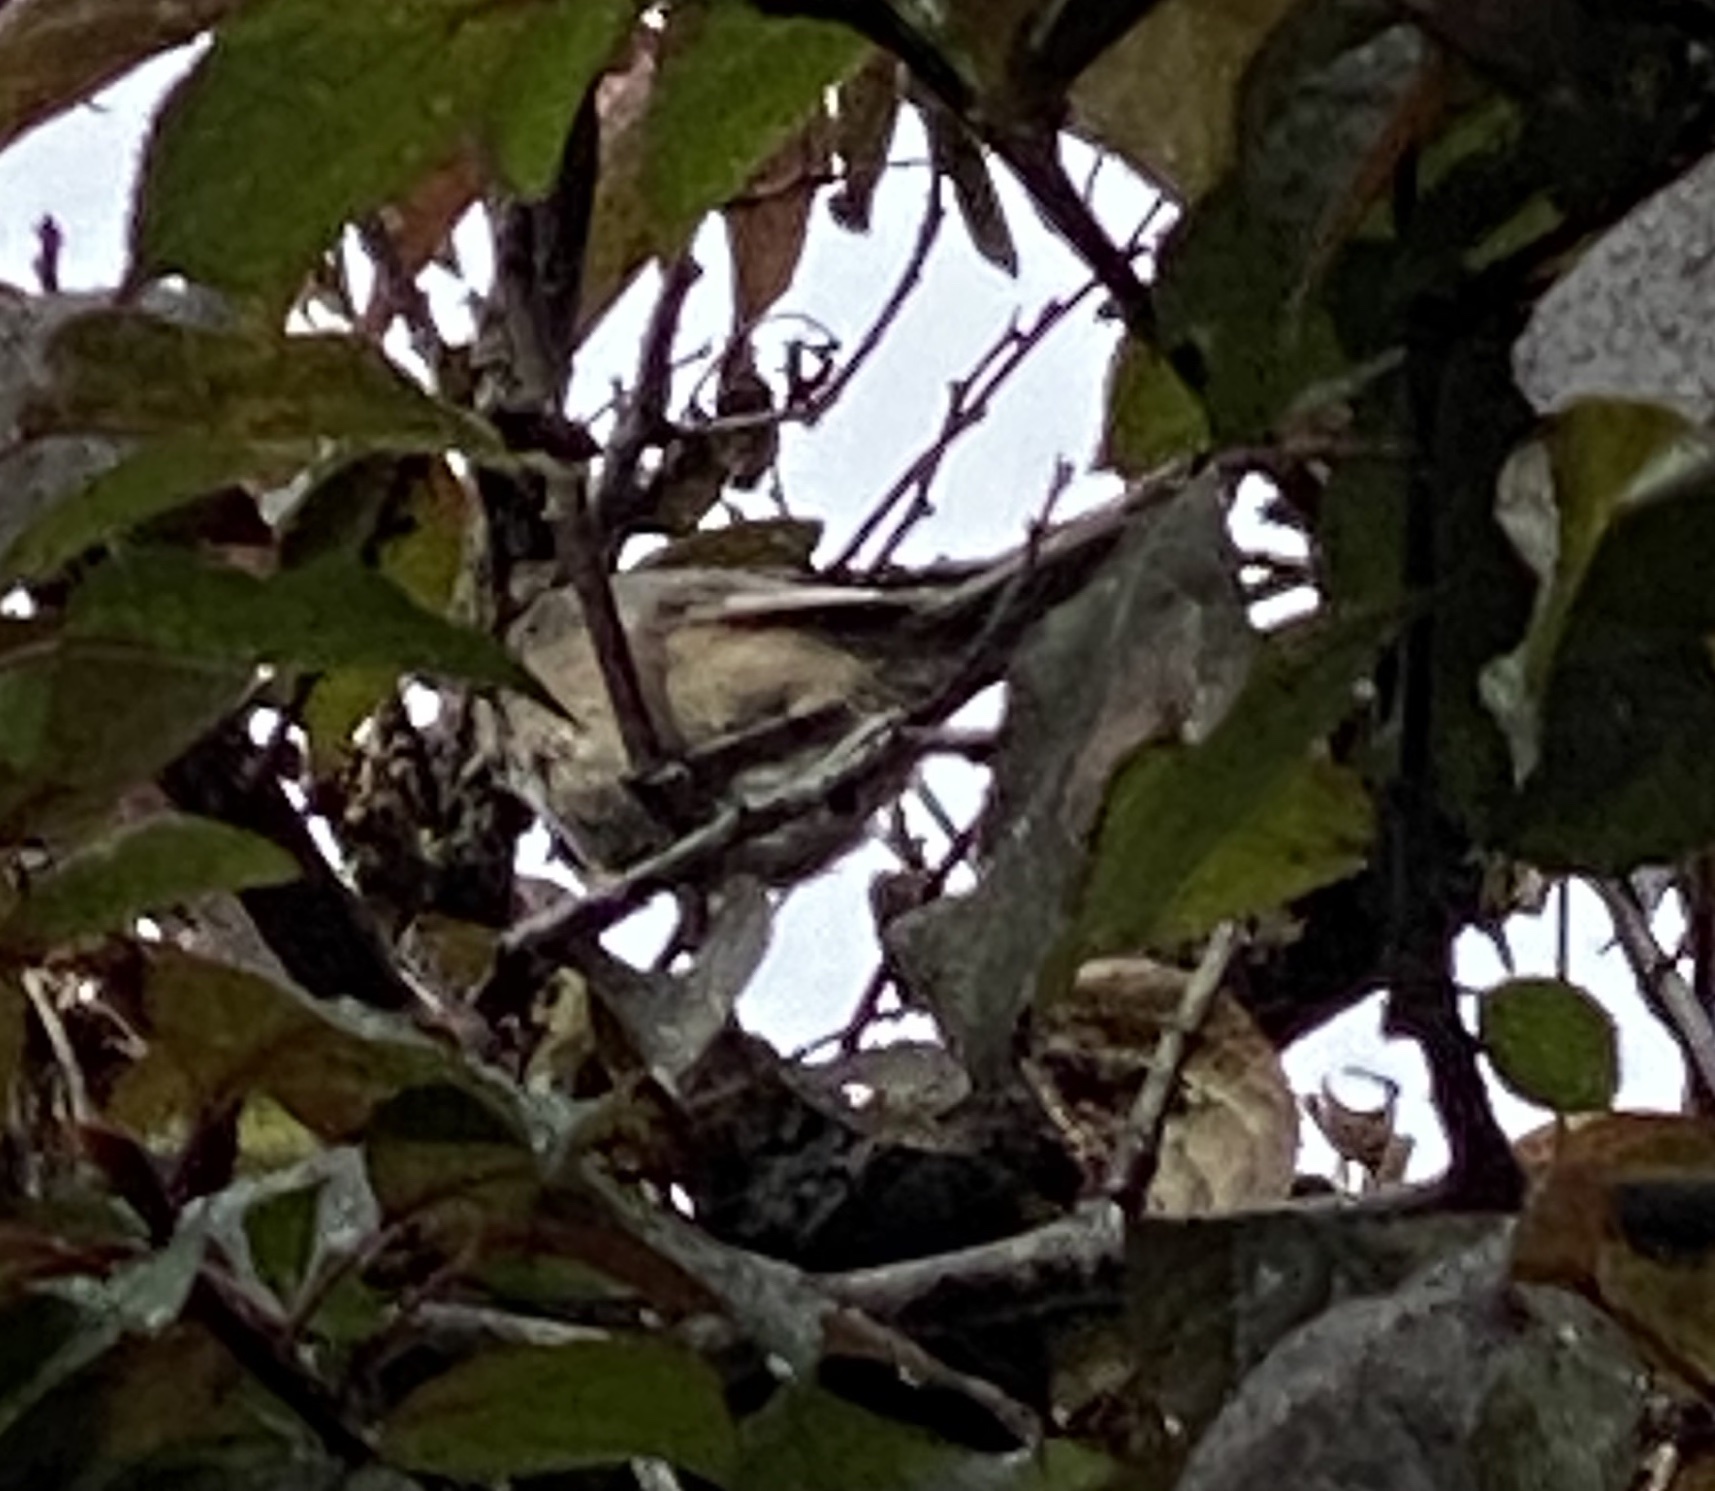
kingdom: Animalia
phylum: Chordata
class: Aves
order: Passeriformes
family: Aegithalidae
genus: Psaltriparus
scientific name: Psaltriparus minimus
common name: American bushtit
